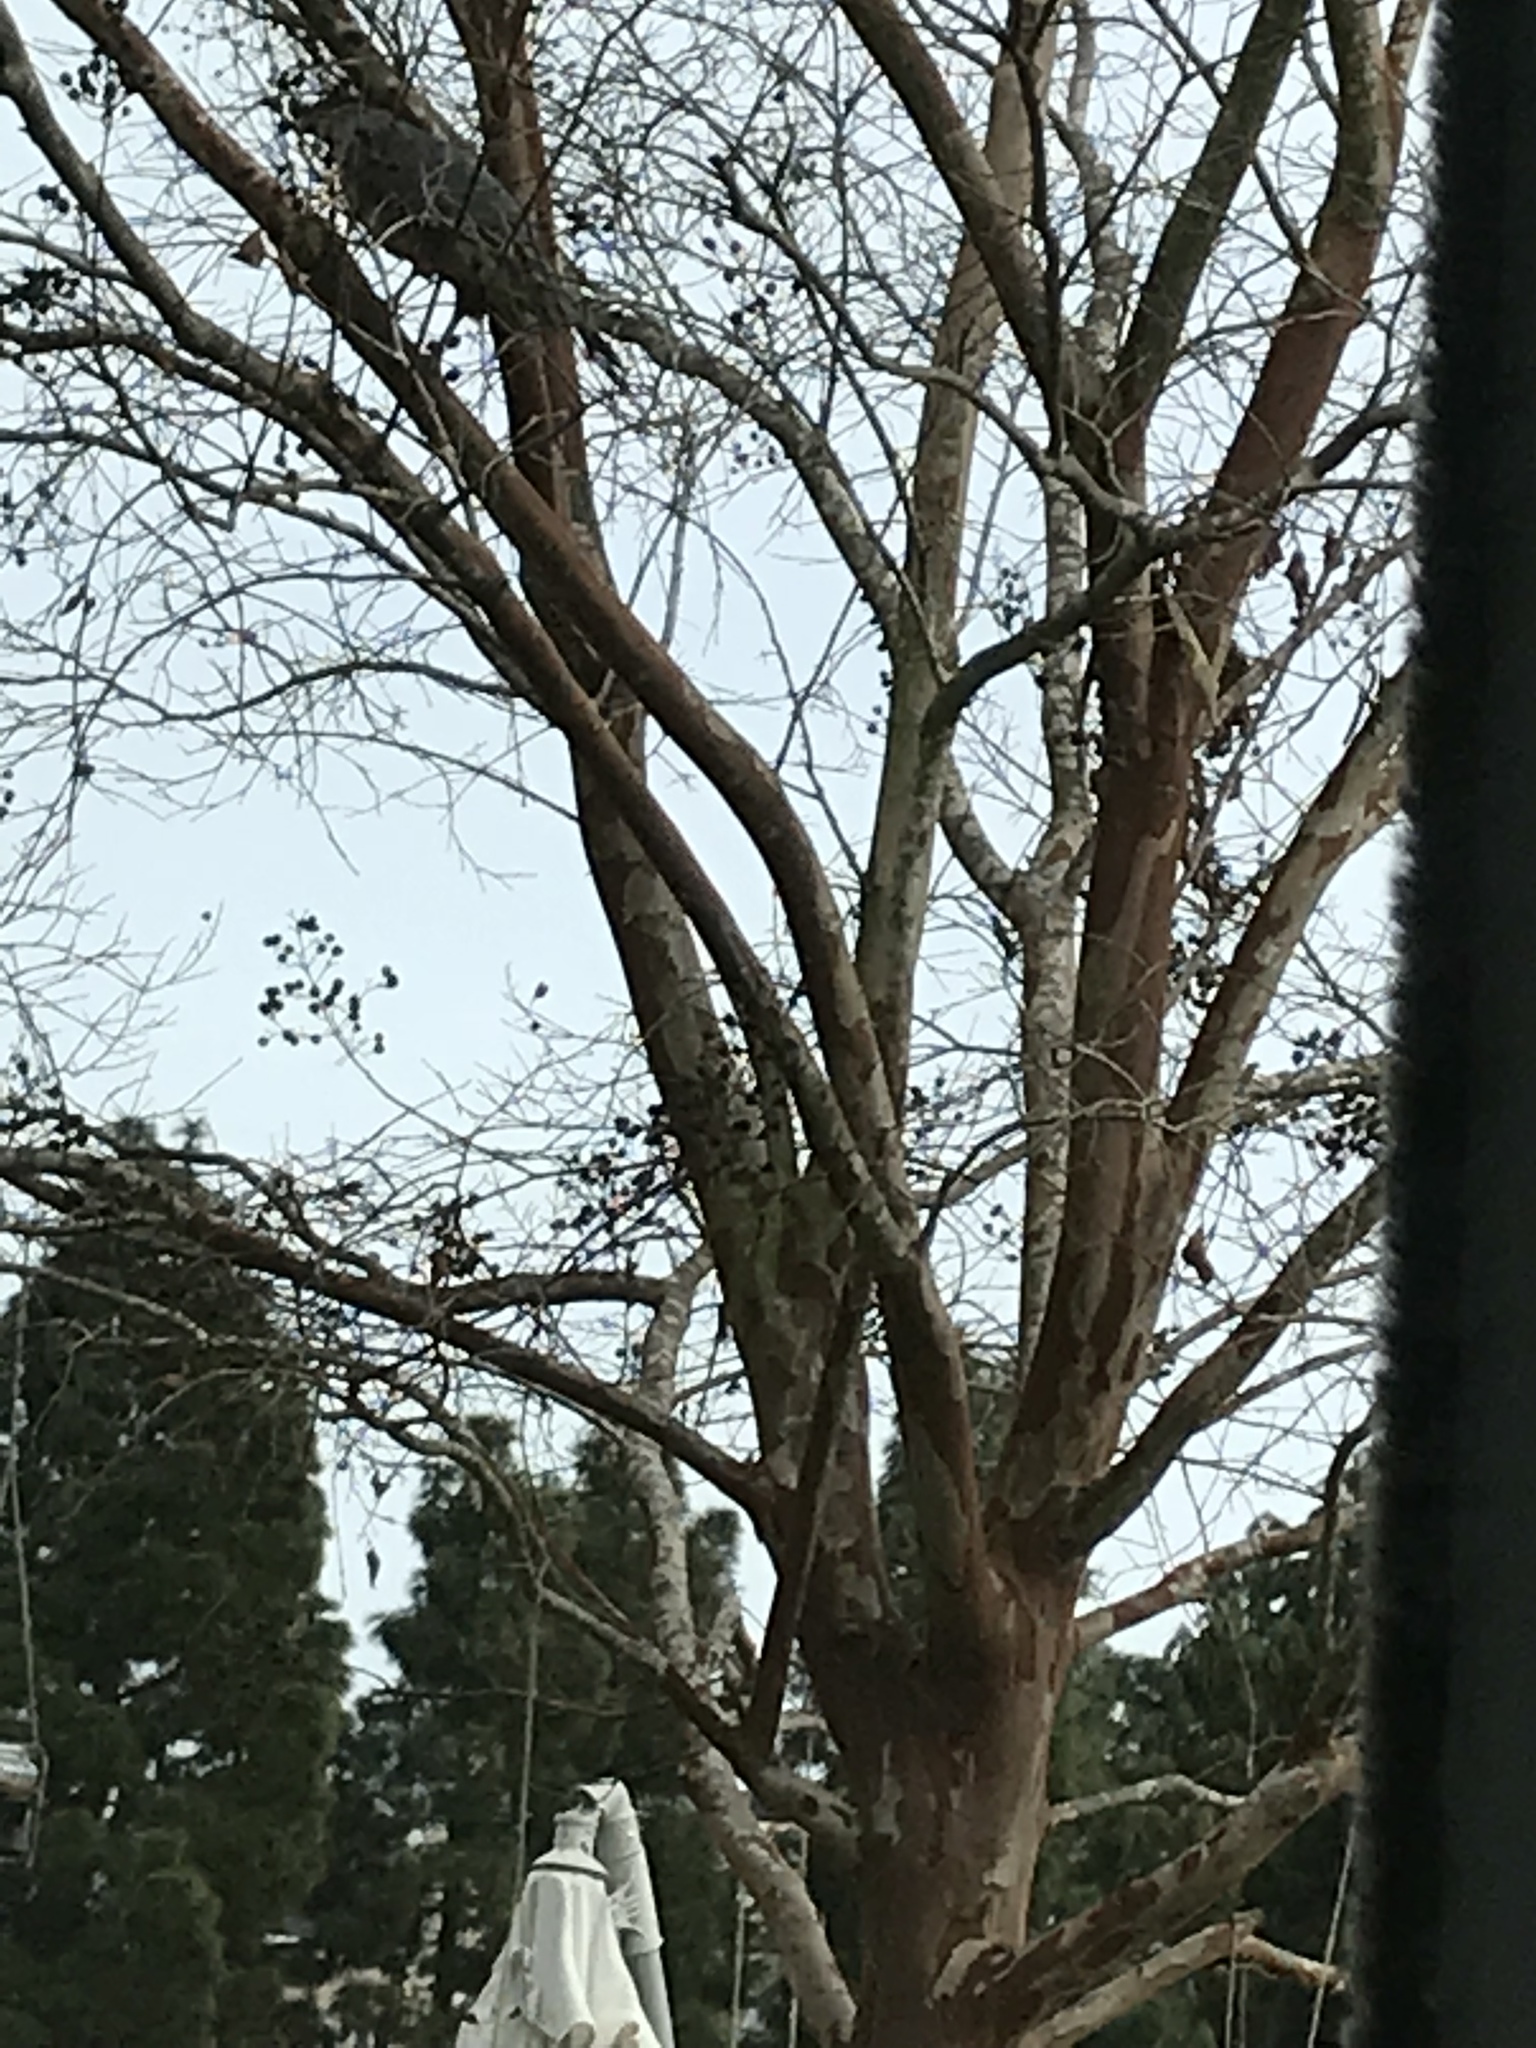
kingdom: Animalia
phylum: Chordata
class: Aves
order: Accipitriformes
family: Accipitridae
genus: Accipiter
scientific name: Accipiter cooperii
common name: Cooper's hawk
